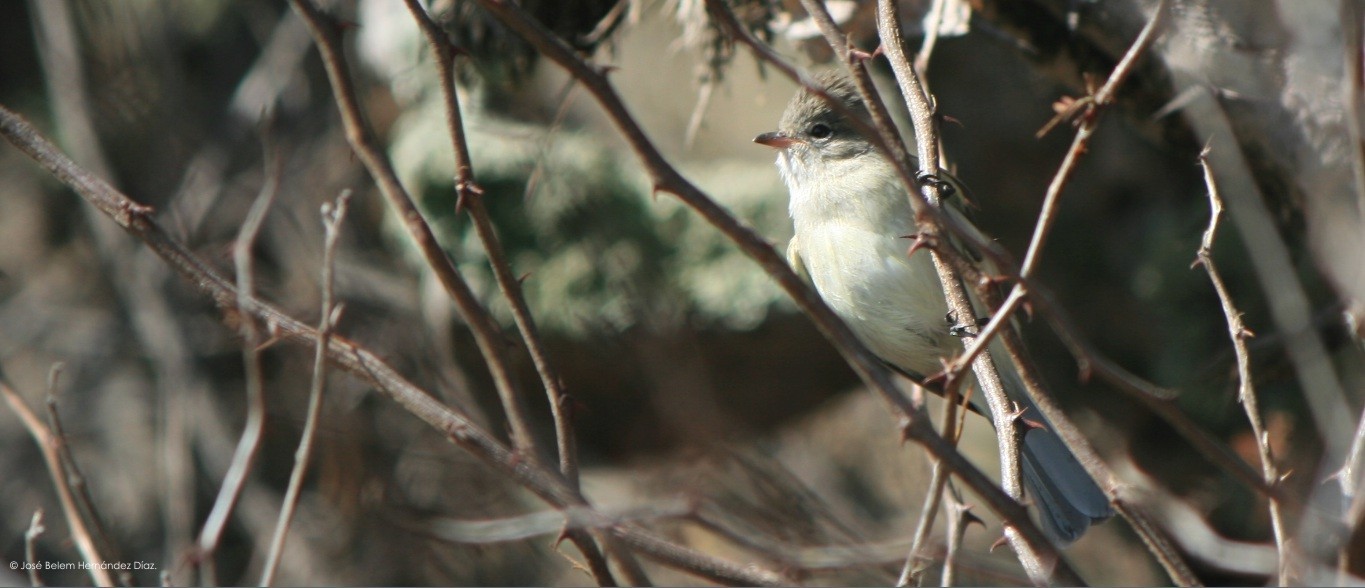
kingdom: Animalia
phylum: Chordata
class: Aves
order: Passeriformes
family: Tyrannidae
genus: Camptostoma
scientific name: Camptostoma imberbe
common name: Northern beardless-tyrannulet
